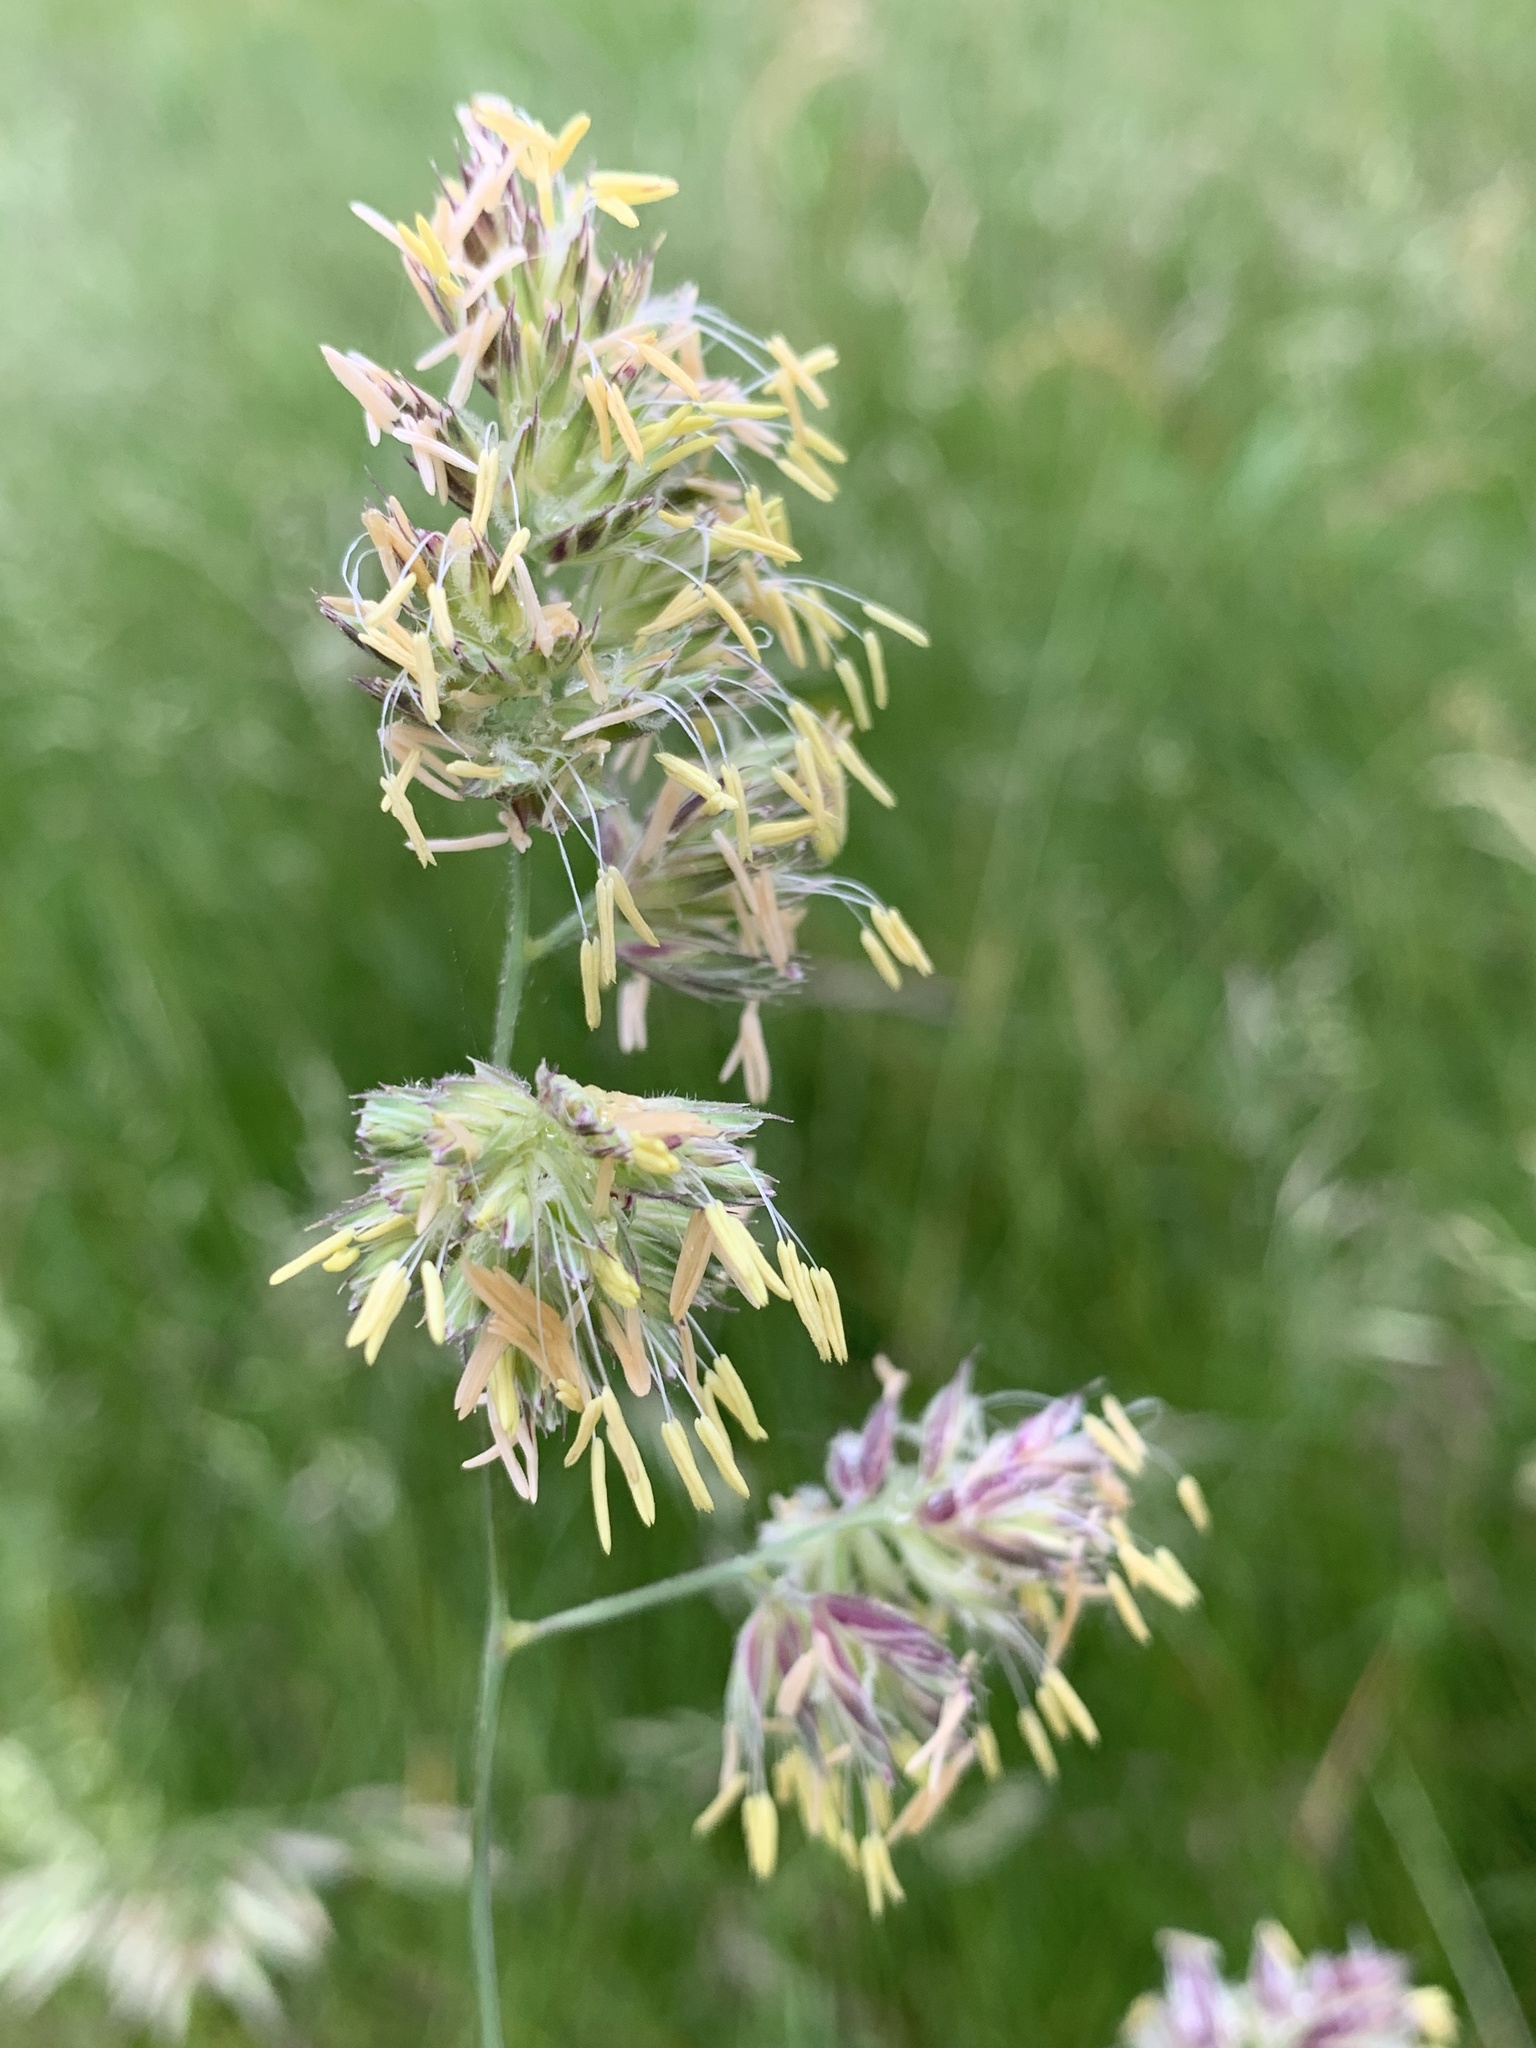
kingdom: Plantae
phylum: Tracheophyta
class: Liliopsida
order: Poales
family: Poaceae
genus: Dactylis
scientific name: Dactylis glomerata
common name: Orchardgrass
